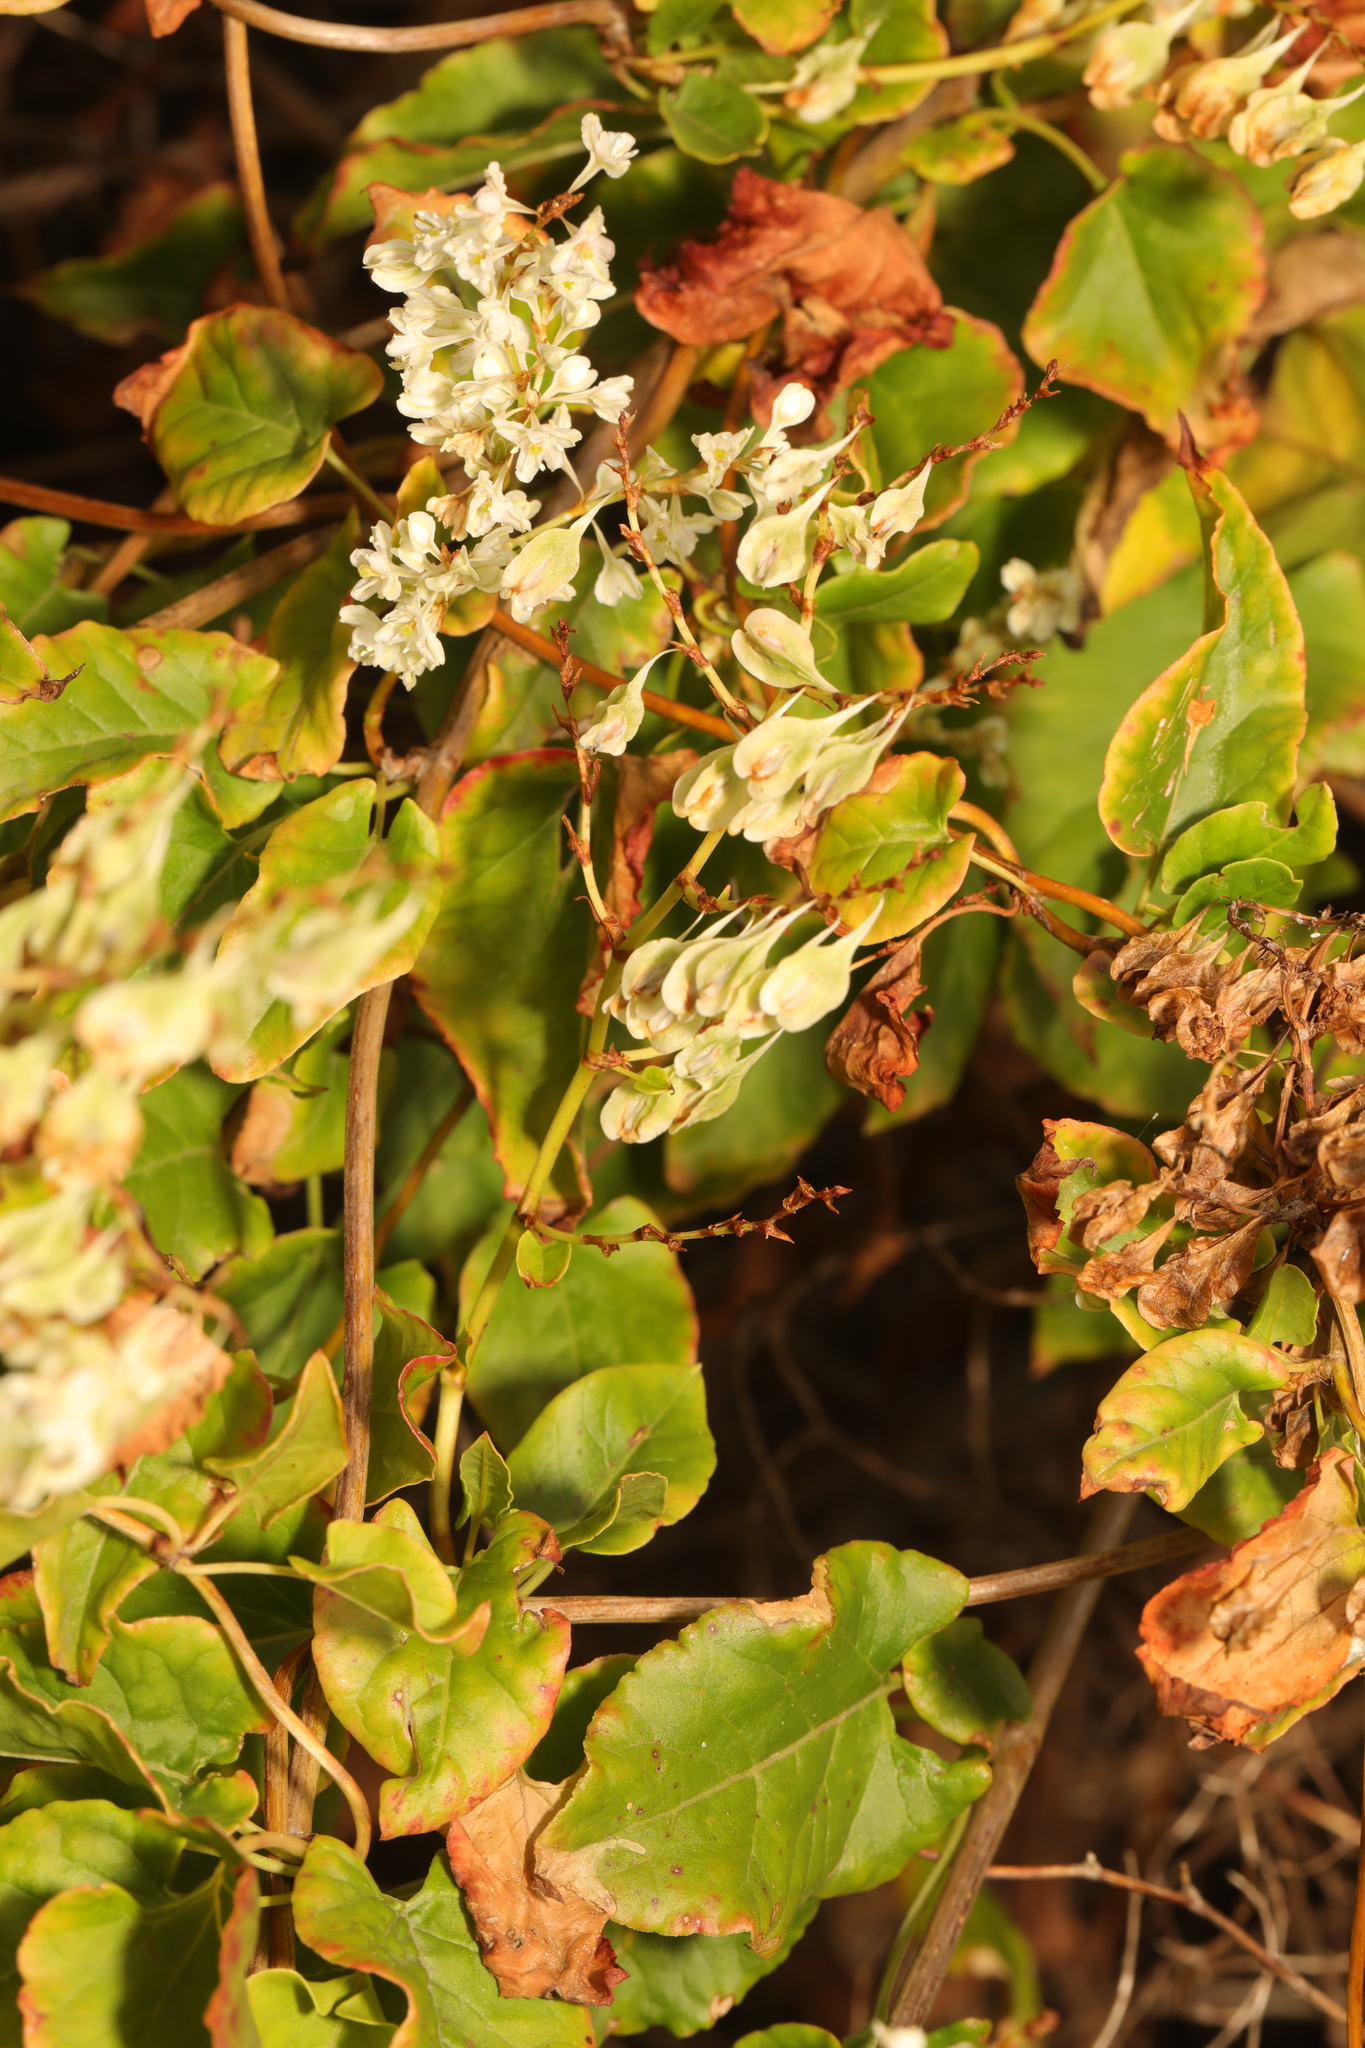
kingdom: Plantae
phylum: Tracheophyta
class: Magnoliopsida
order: Caryophyllales
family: Polygonaceae
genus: Fallopia
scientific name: Fallopia baldschuanica
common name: Russian-vine
